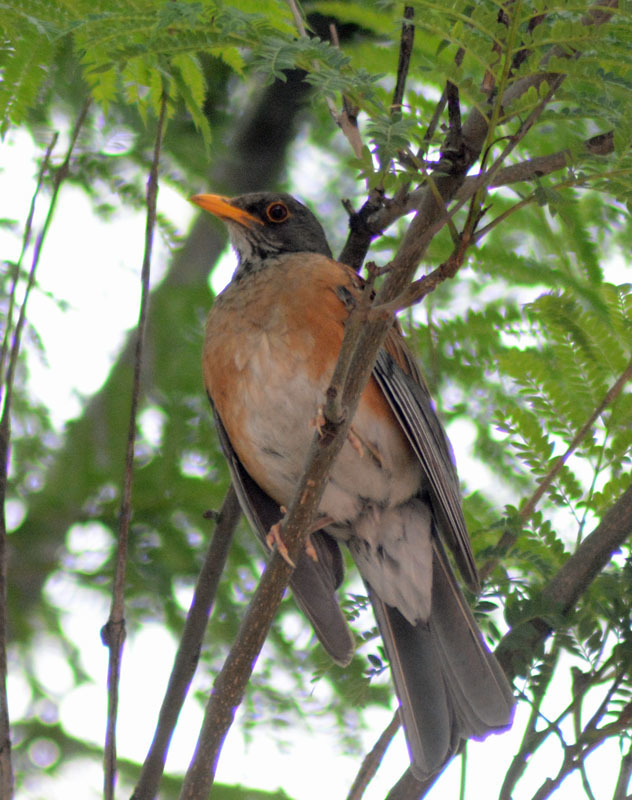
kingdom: Animalia
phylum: Chordata
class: Aves
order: Passeriformes
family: Turdidae
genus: Turdus
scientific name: Turdus rufopalliatus
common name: Rufous-backed robin
